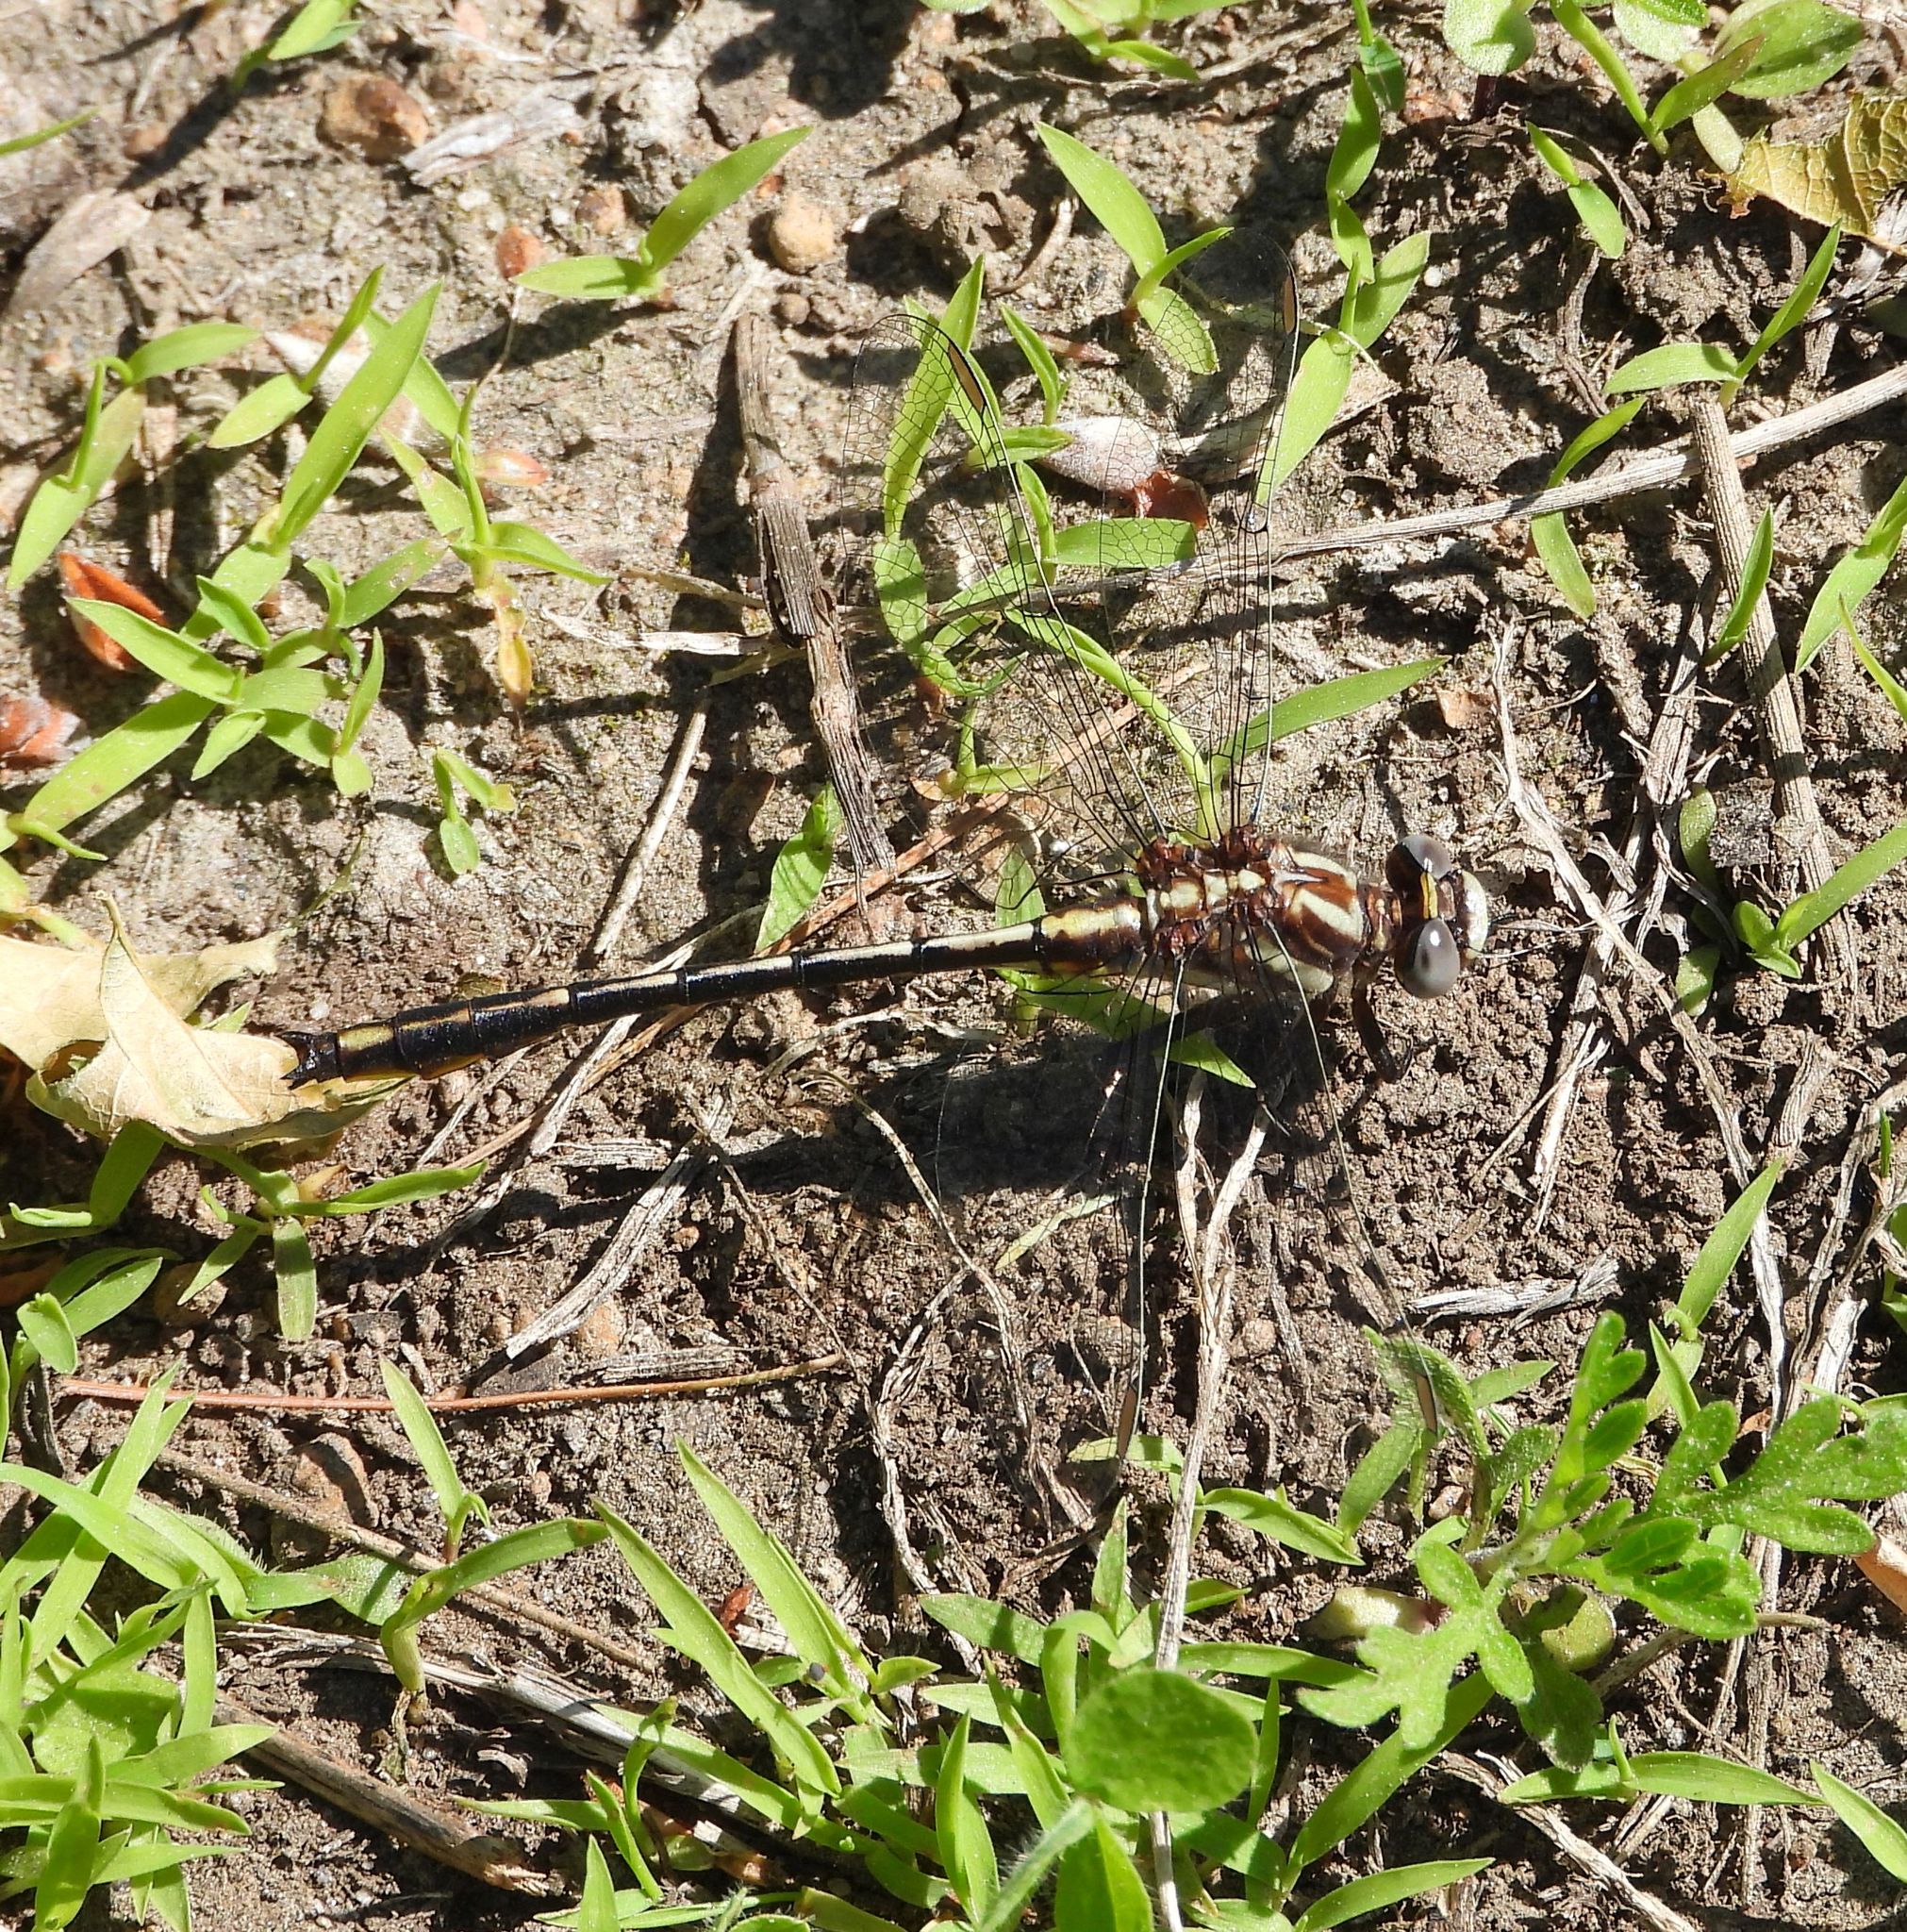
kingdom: Animalia
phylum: Arthropoda
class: Insecta
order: Odonata
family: Gomphidae
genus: Phanogomphus
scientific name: Phanogomphus exilis
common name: Lancet clubtail
